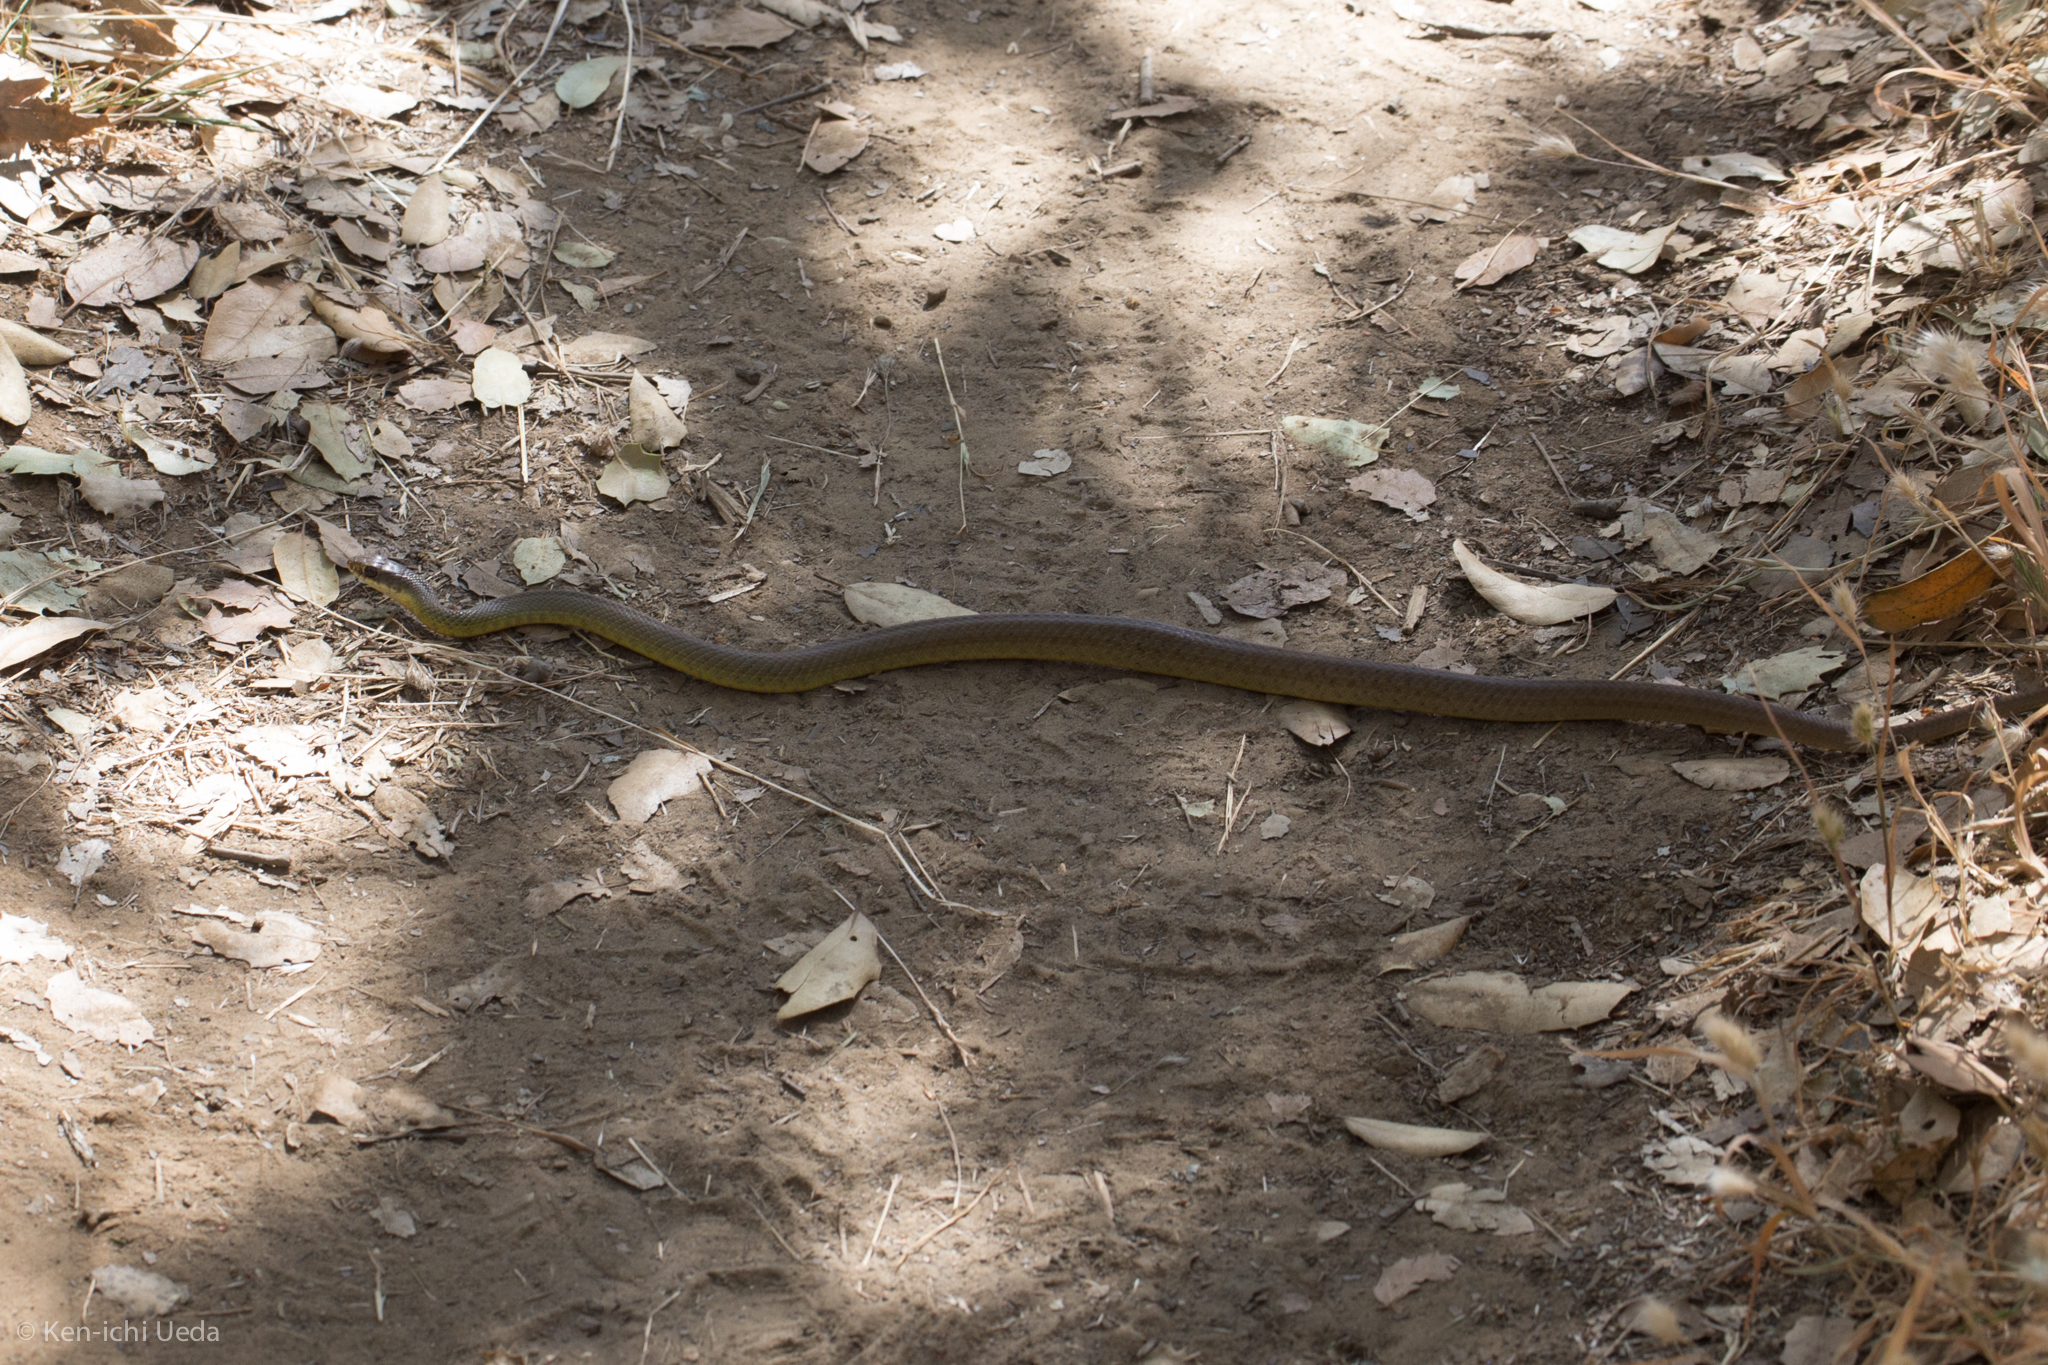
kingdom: Animalia
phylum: Chordata
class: Squamata
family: Colubridae
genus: Coluber
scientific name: Coluber constrictor
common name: Eastern racer
